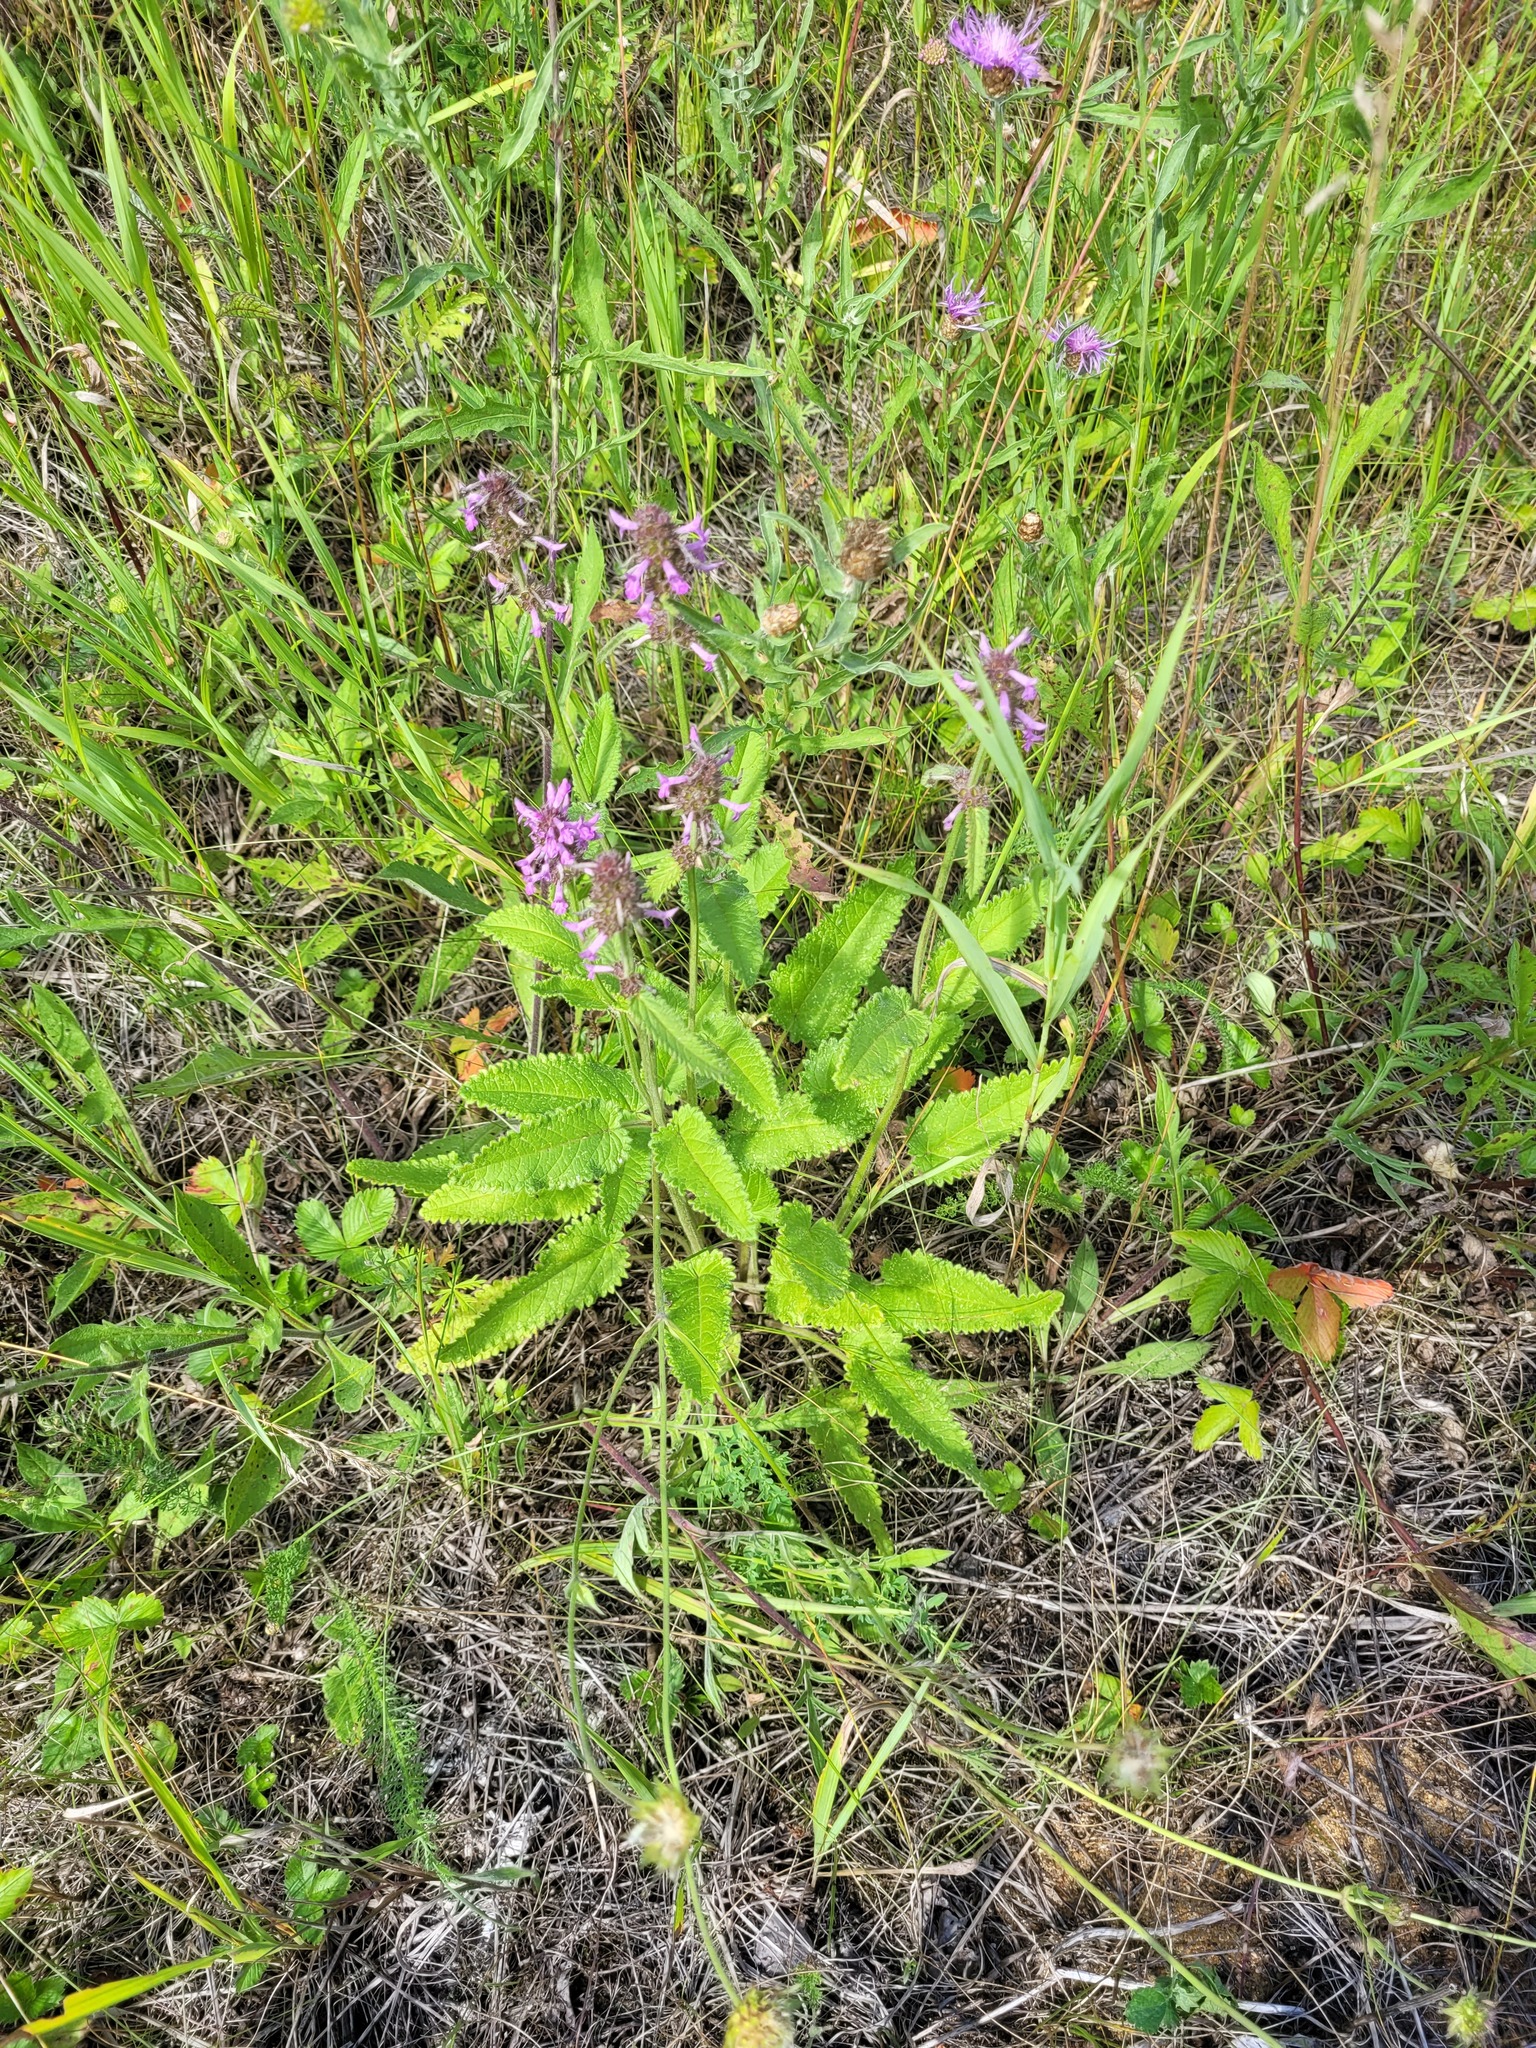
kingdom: Plantae
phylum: Tracheophyta
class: Magnoliopsida
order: Lamiales
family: Lamiaceae
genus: Betonica
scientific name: Betonica officinalis
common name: Bishop's-wort
